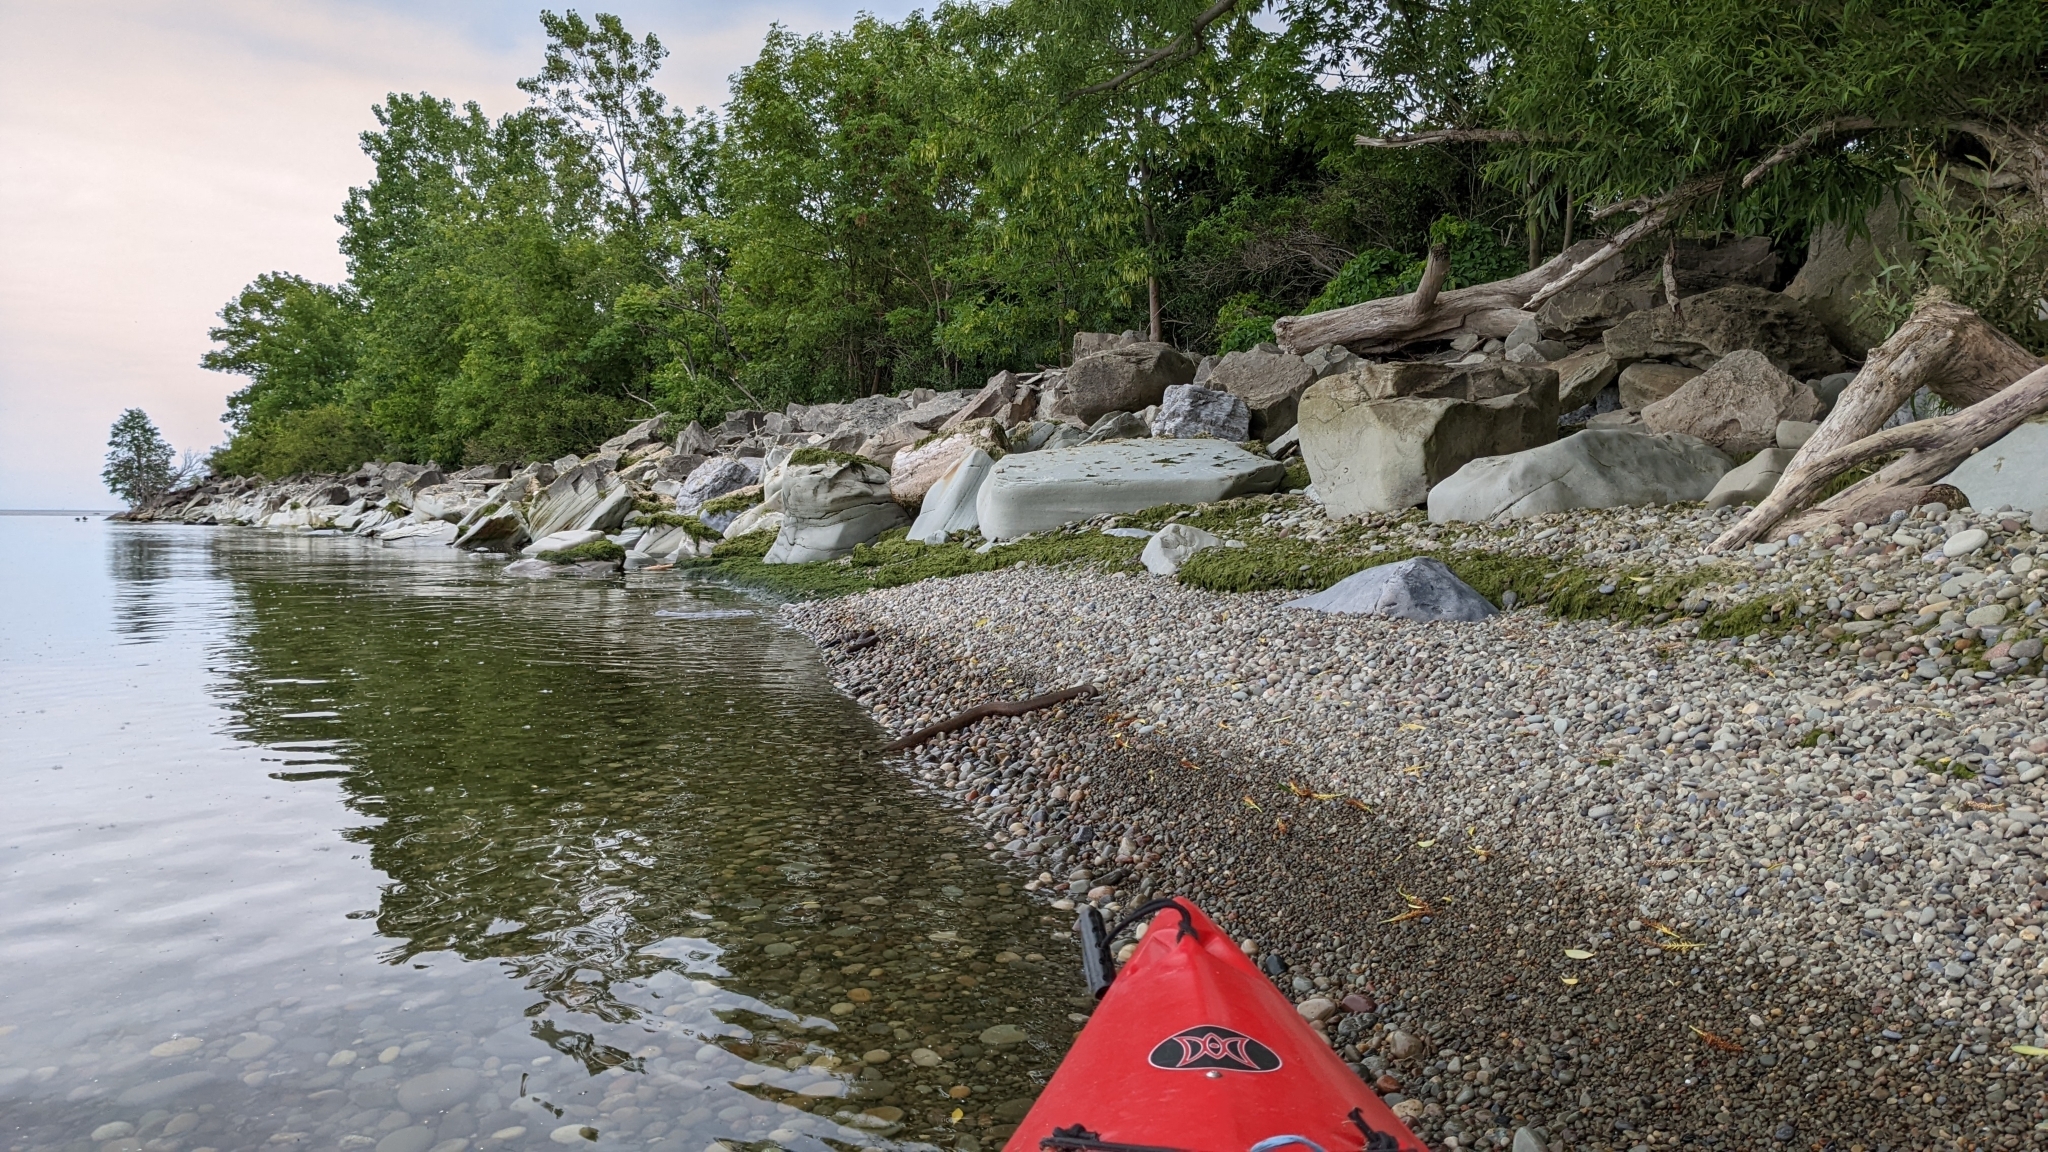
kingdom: Animalia
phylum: Chordata
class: Squamata
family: Colubridae
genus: Nerodia
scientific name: Nerodia sipedon
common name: Northern water snake
